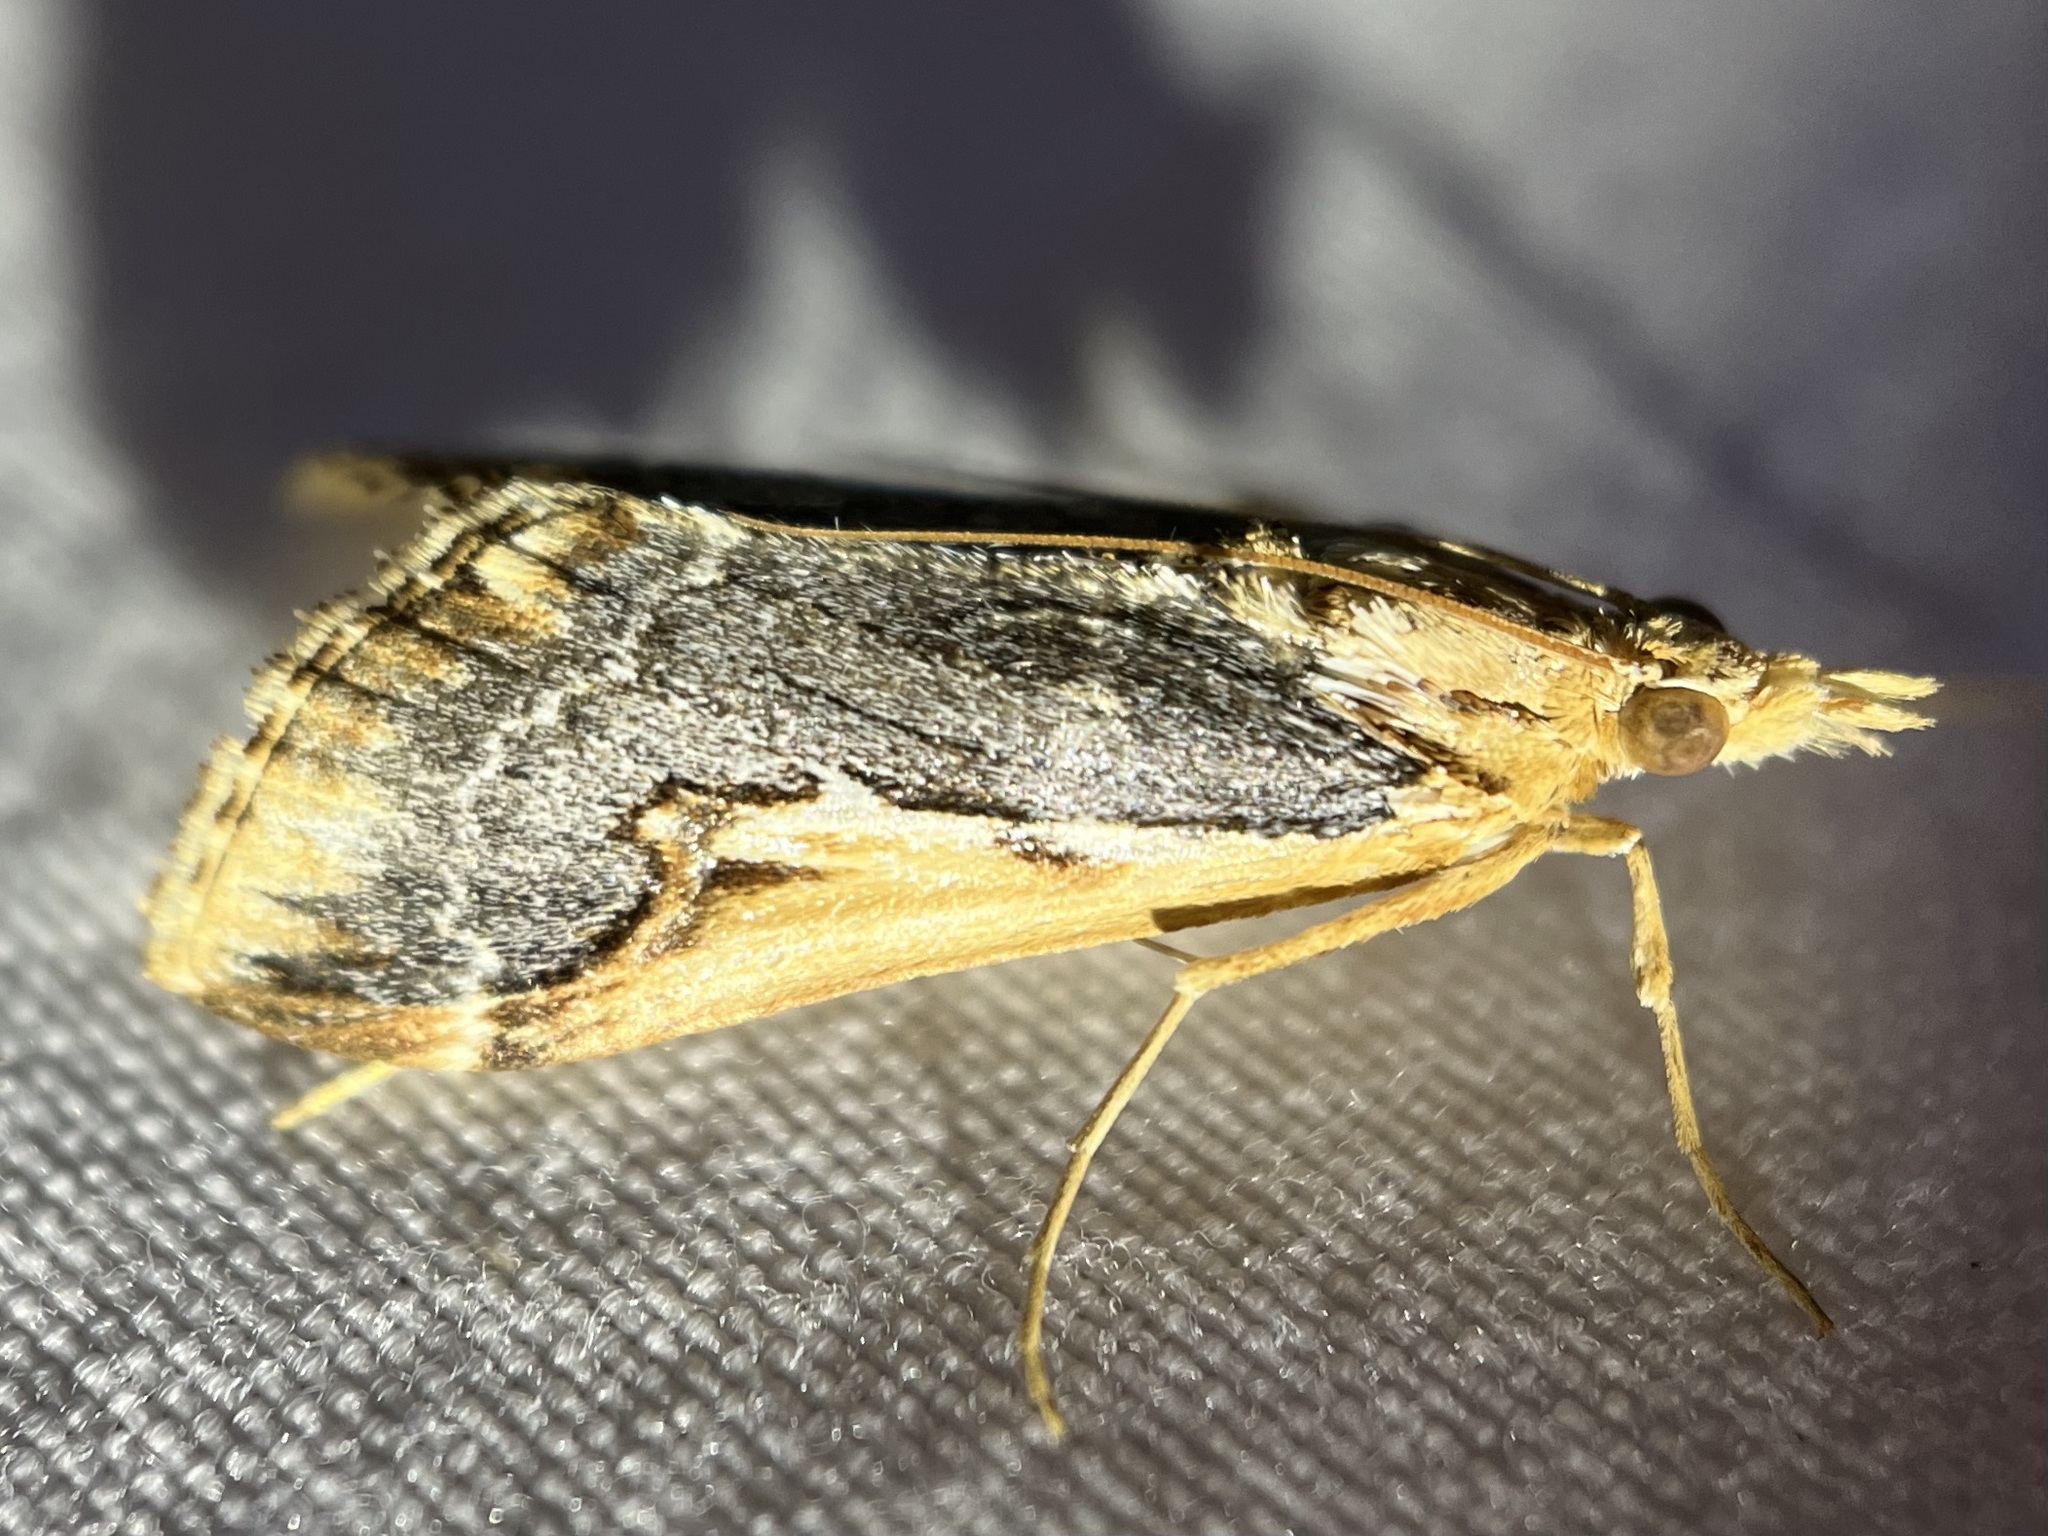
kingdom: Animalia
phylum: Arthropoda
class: Insecta
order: Lepidoptera
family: Crambidae
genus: Loxostege
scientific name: Loxostege albiceralis
